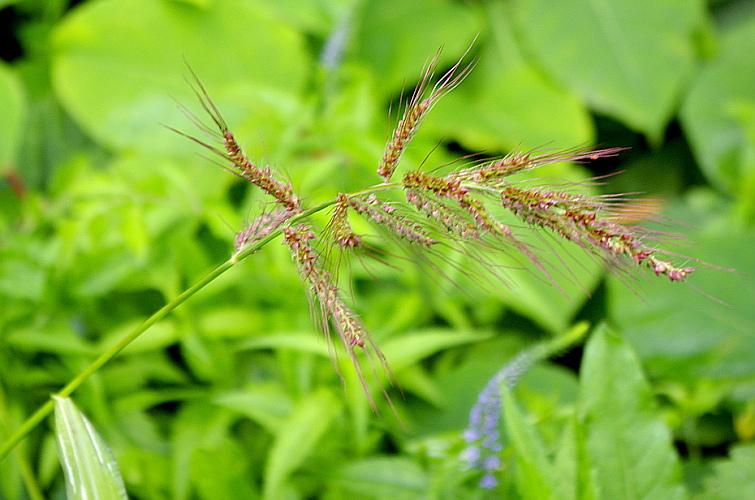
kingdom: Plantae
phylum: Tracheophyta
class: Liliopsida
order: Poales
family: Poaceae
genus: Echinochloa
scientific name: Echinochloa crus-galli
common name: Cockspur
